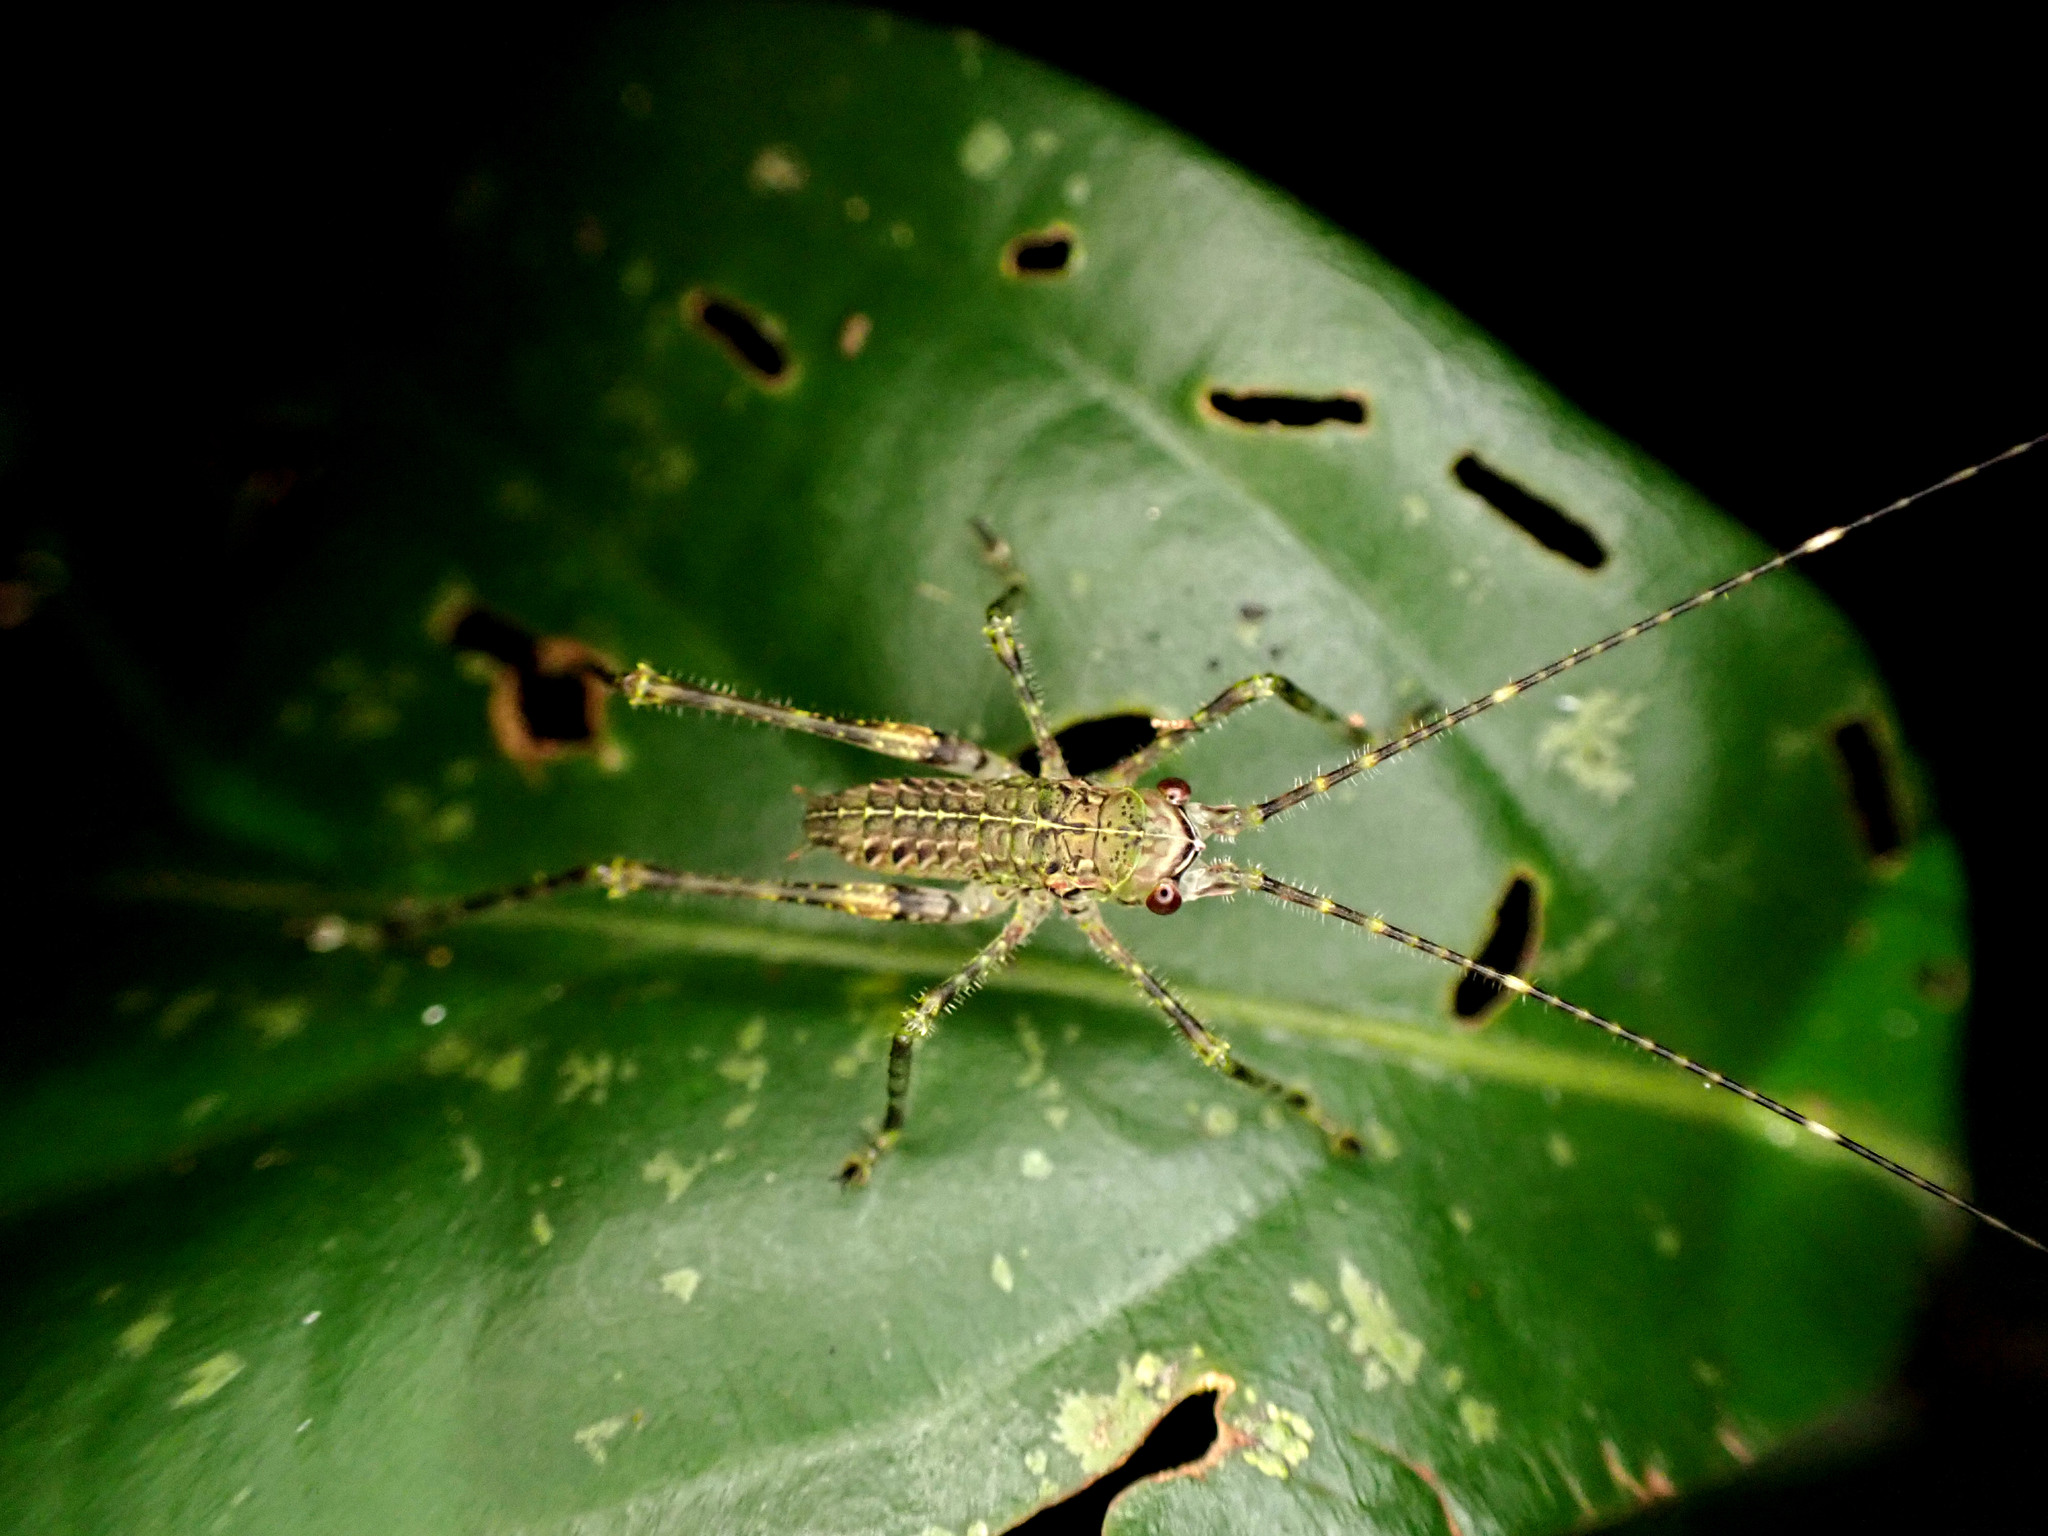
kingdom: Animalia
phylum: Arthropoda
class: Insecta
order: Orthoptera
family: Tettigoniidae
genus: Phricta
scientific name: Phricta spinosa
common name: Giant spiny forest katydid
